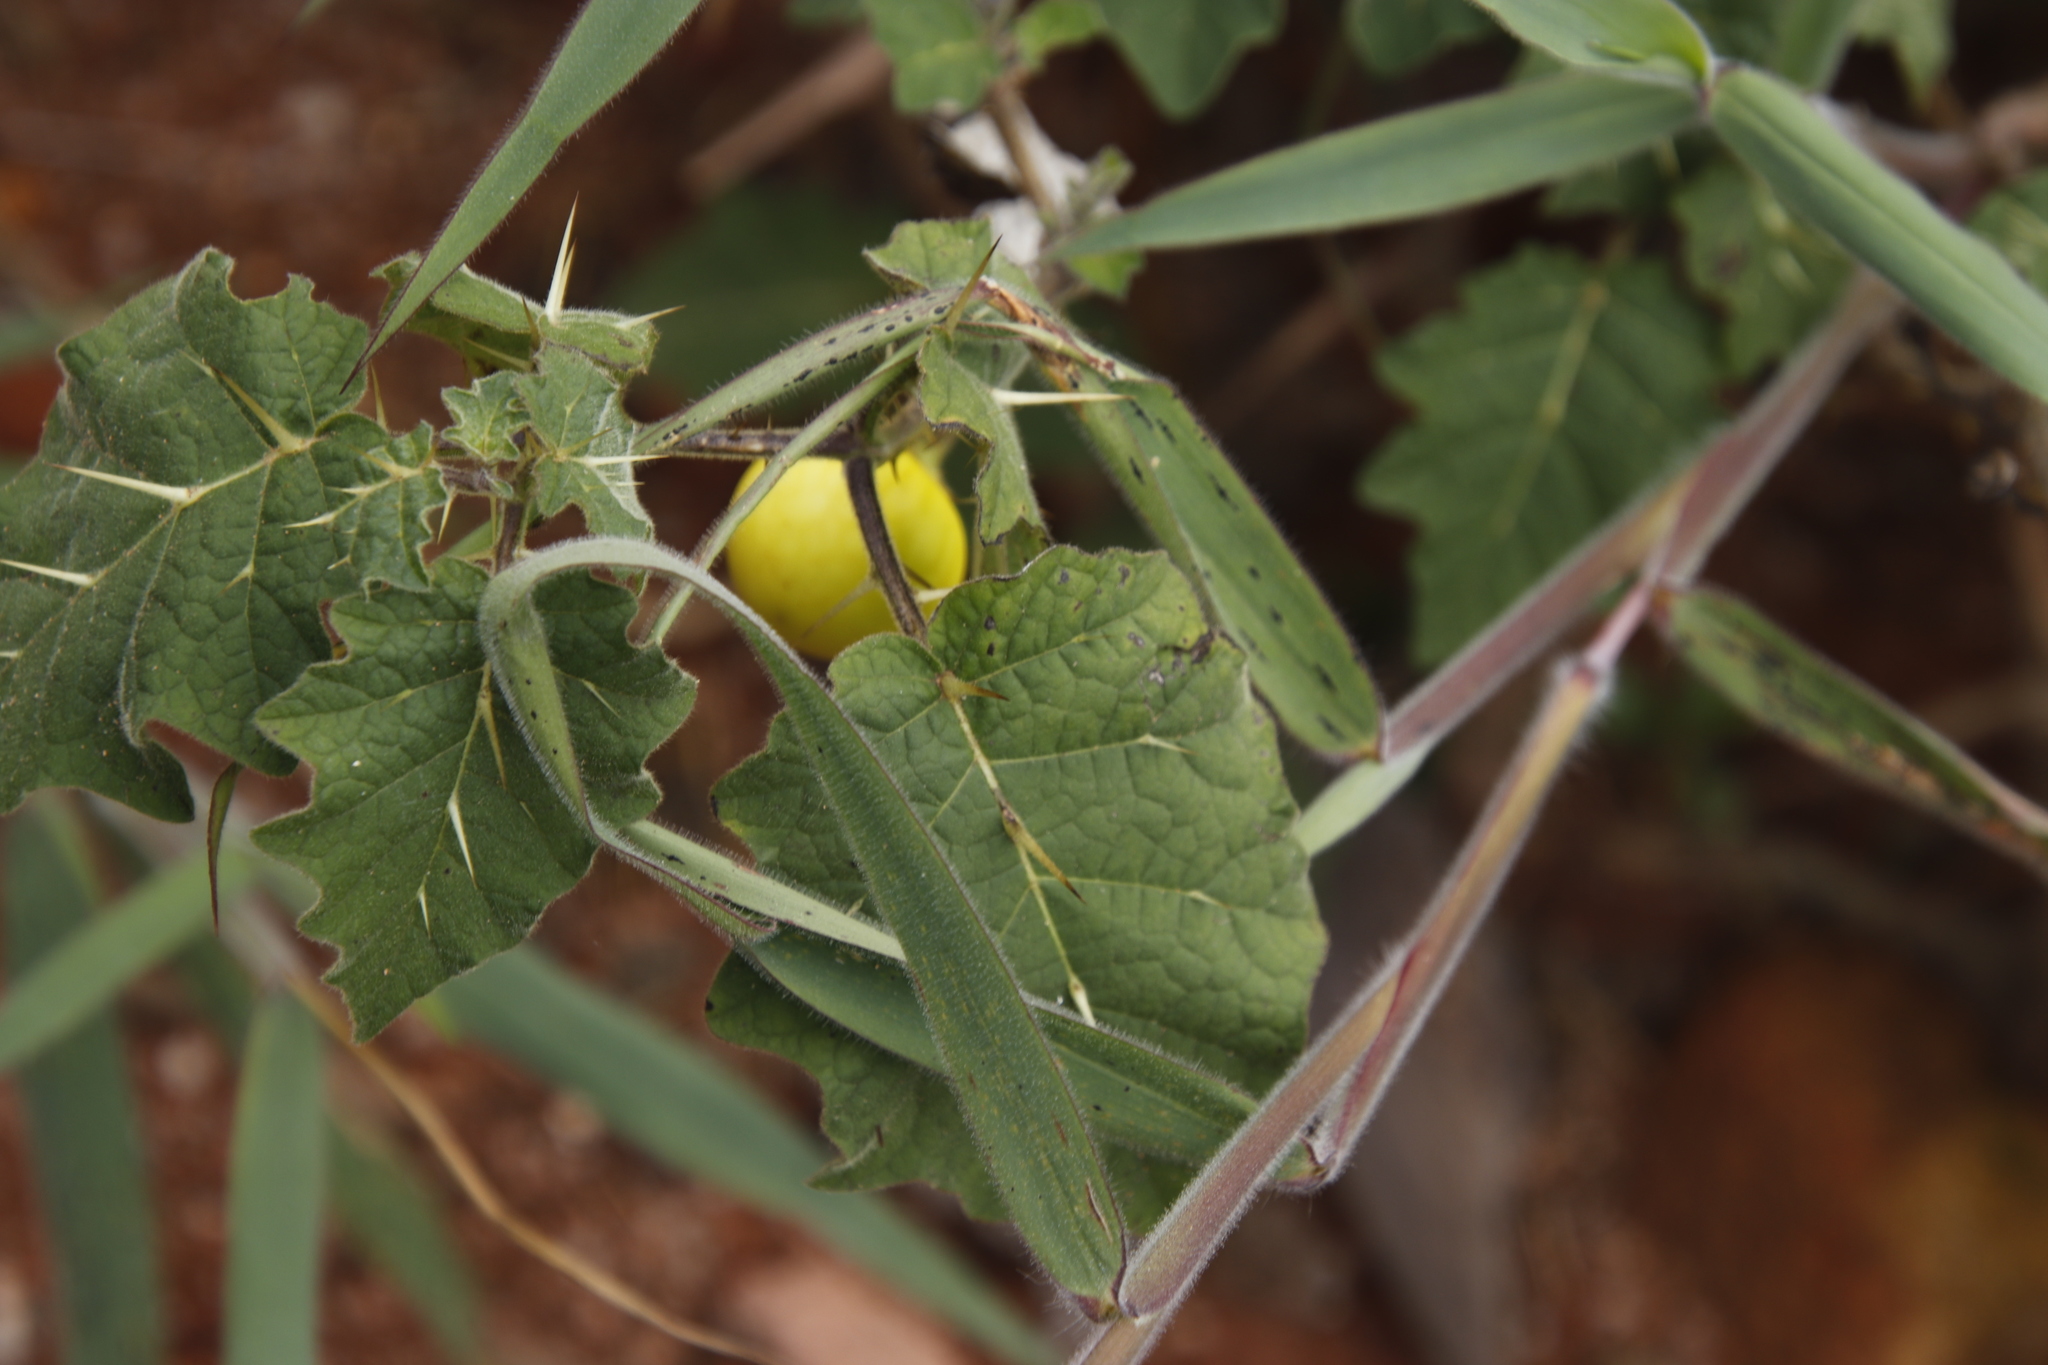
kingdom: Plantae
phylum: Tracheophyta
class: Magnoliopsida
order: Solanales
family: Solanaceae
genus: Solanum
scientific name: Solanum viarum
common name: Tropical soda apple
